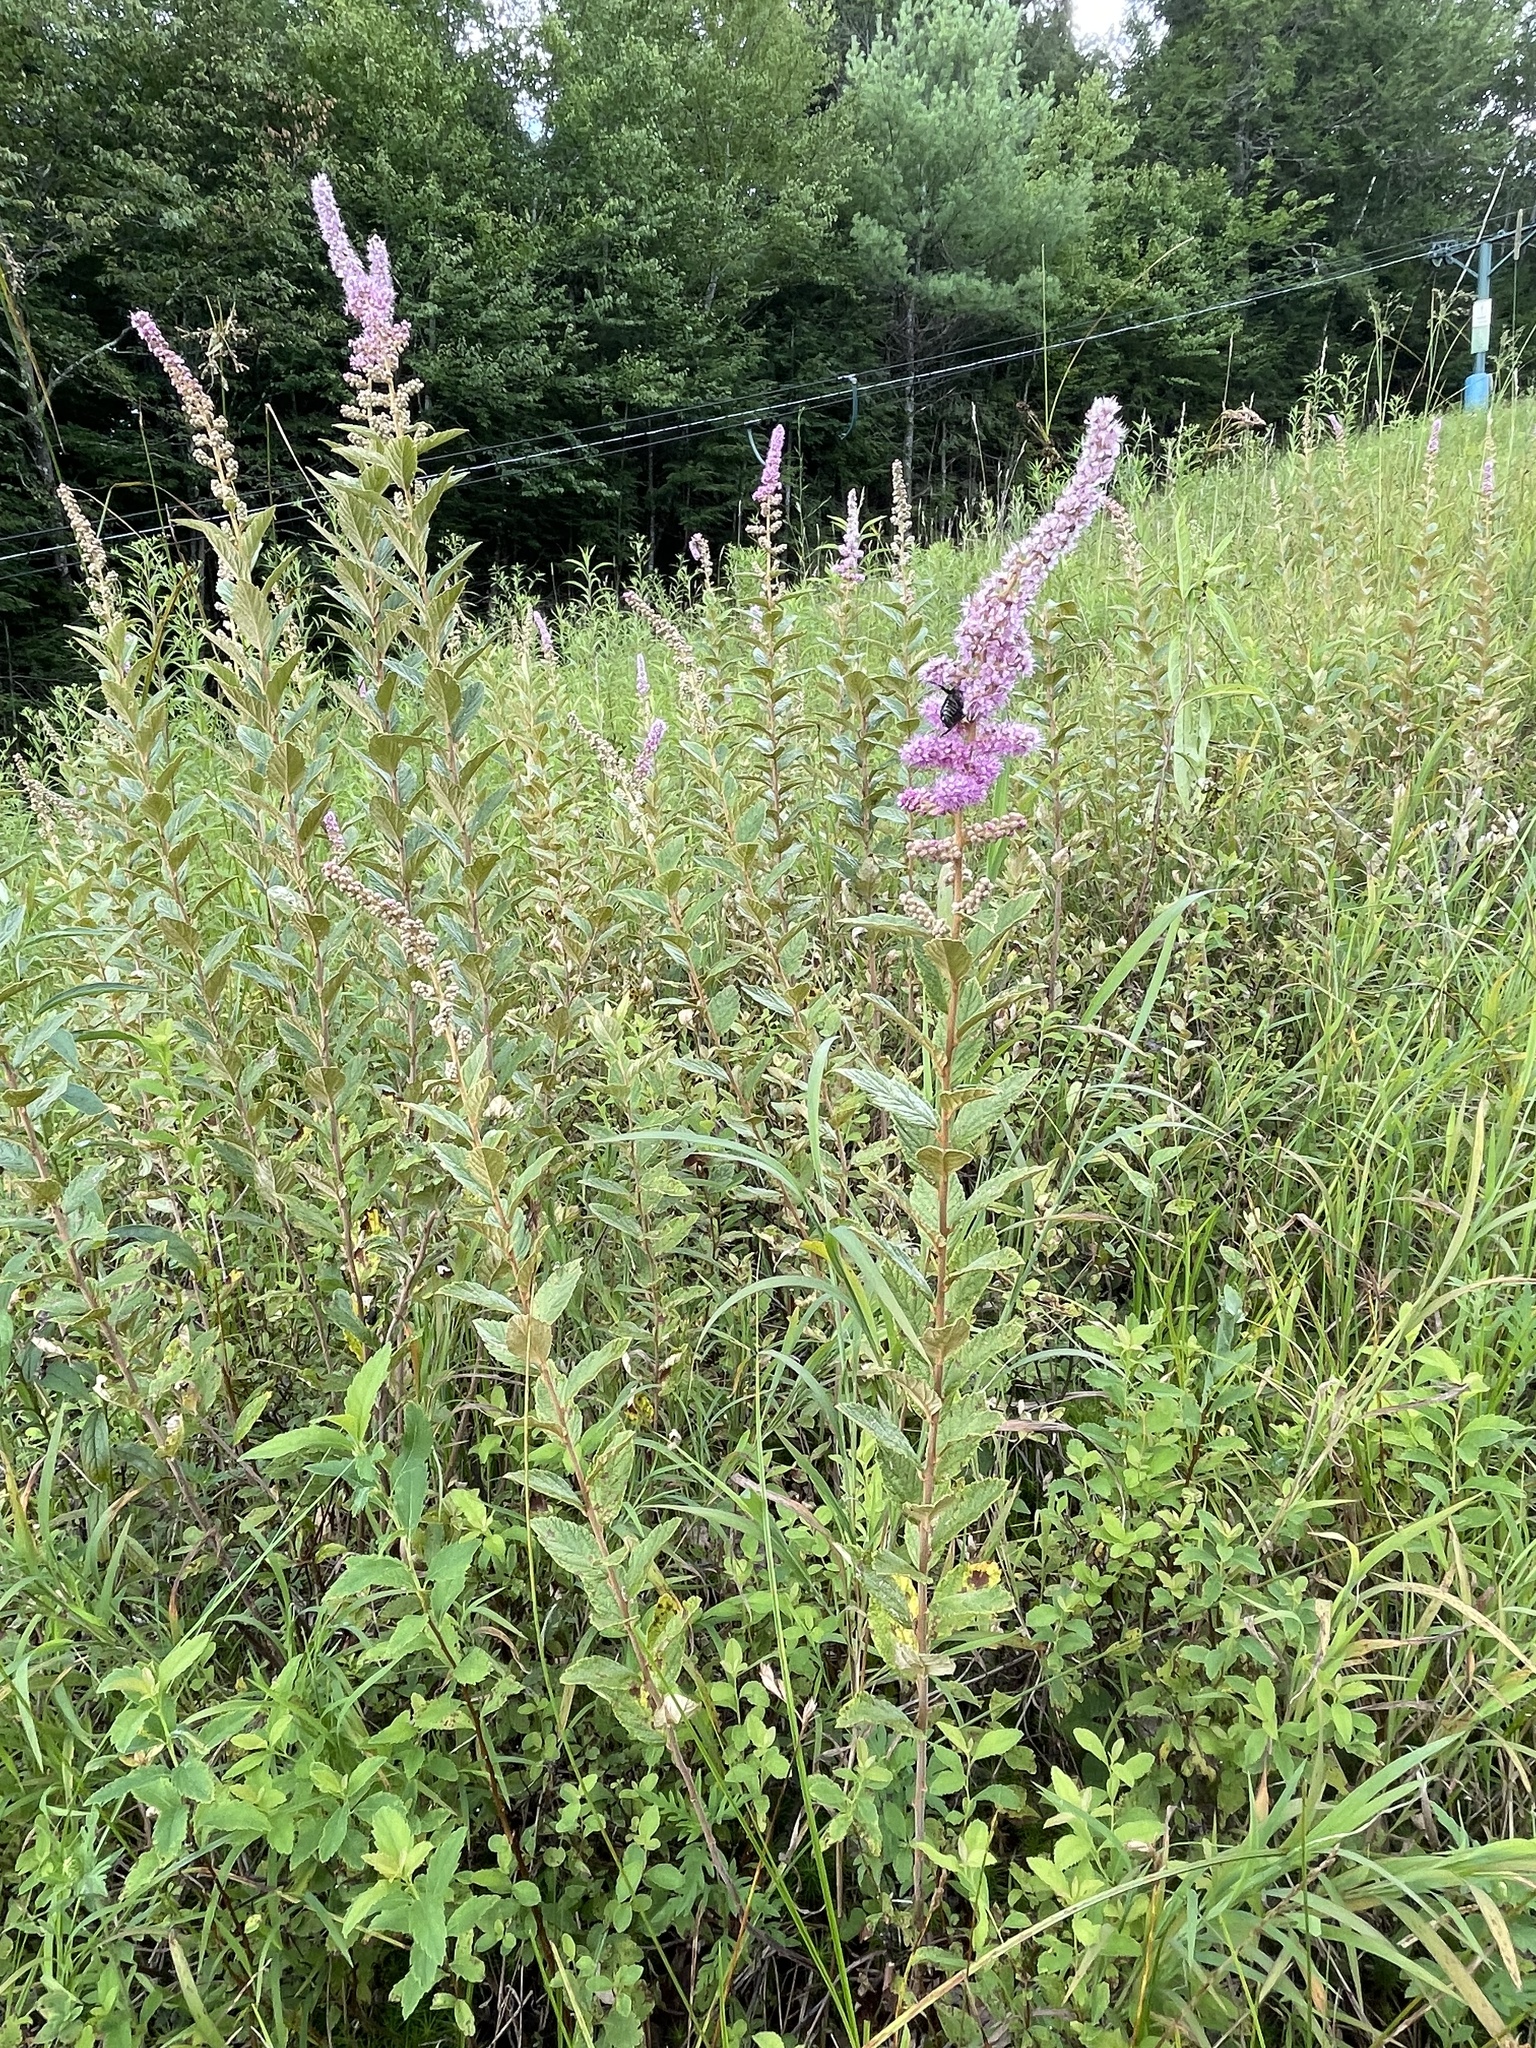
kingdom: Plantae
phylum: Tracheophyta
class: Magnoliopsida
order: Rosales
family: Rosaceae
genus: Spiraea
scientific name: Spiraea tomentosa
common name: Hardhack
